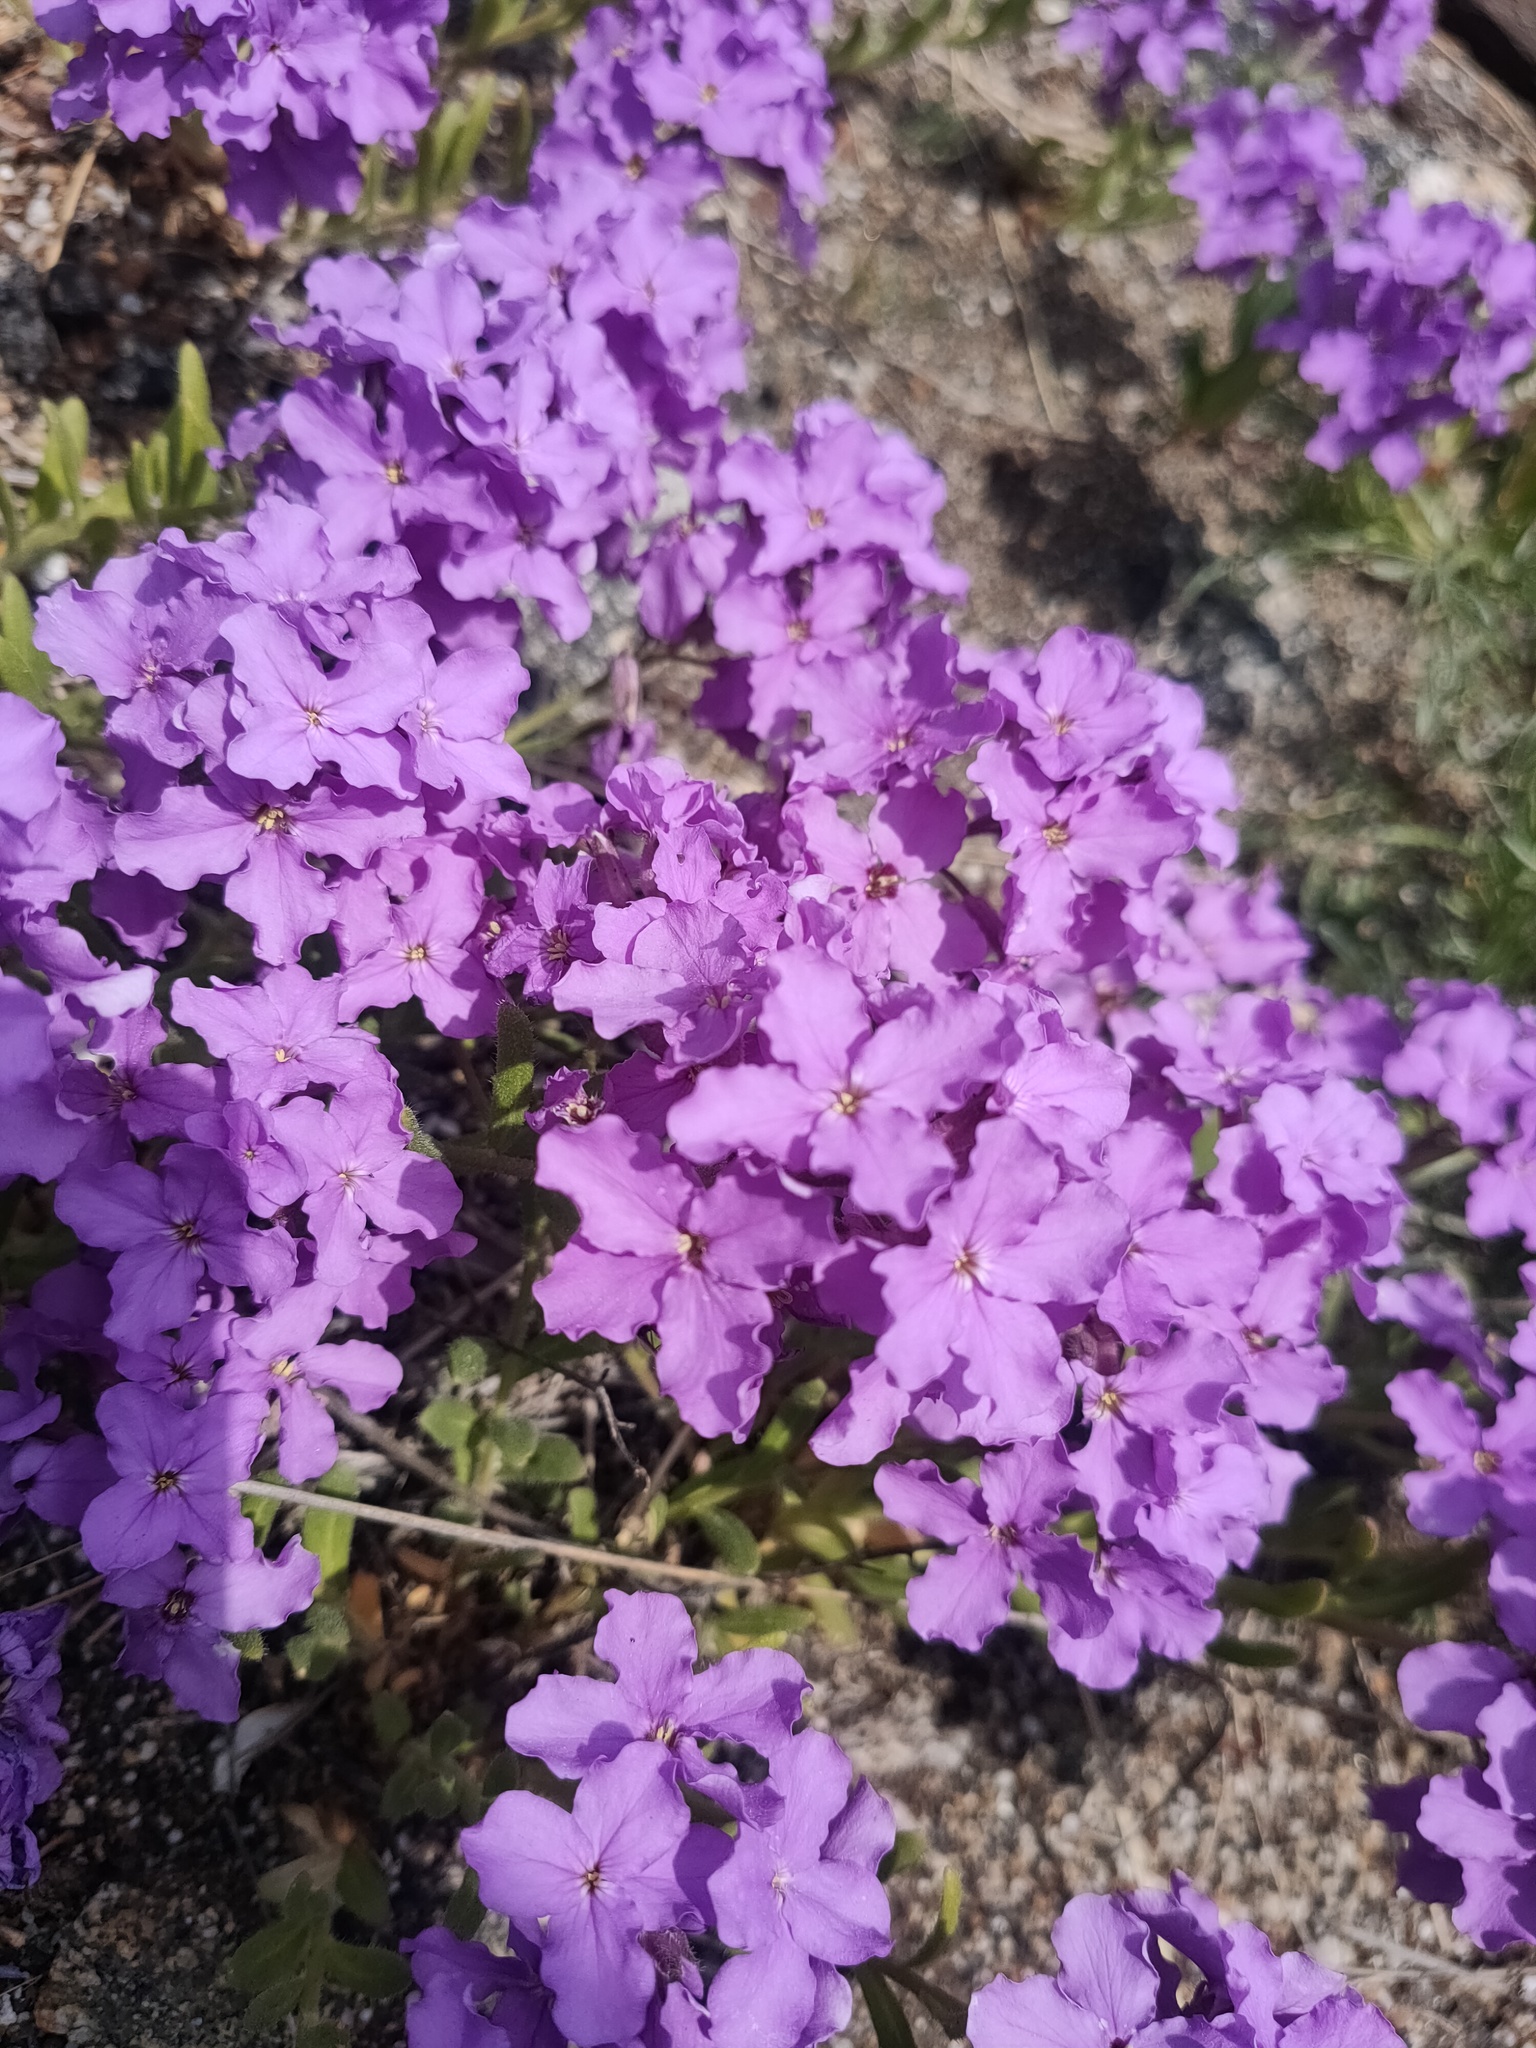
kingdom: Plantae
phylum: Tracheophyta
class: Magnoliopsida
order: Brassicales
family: Brassicaceae
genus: Clausia
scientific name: Clausia aprica
